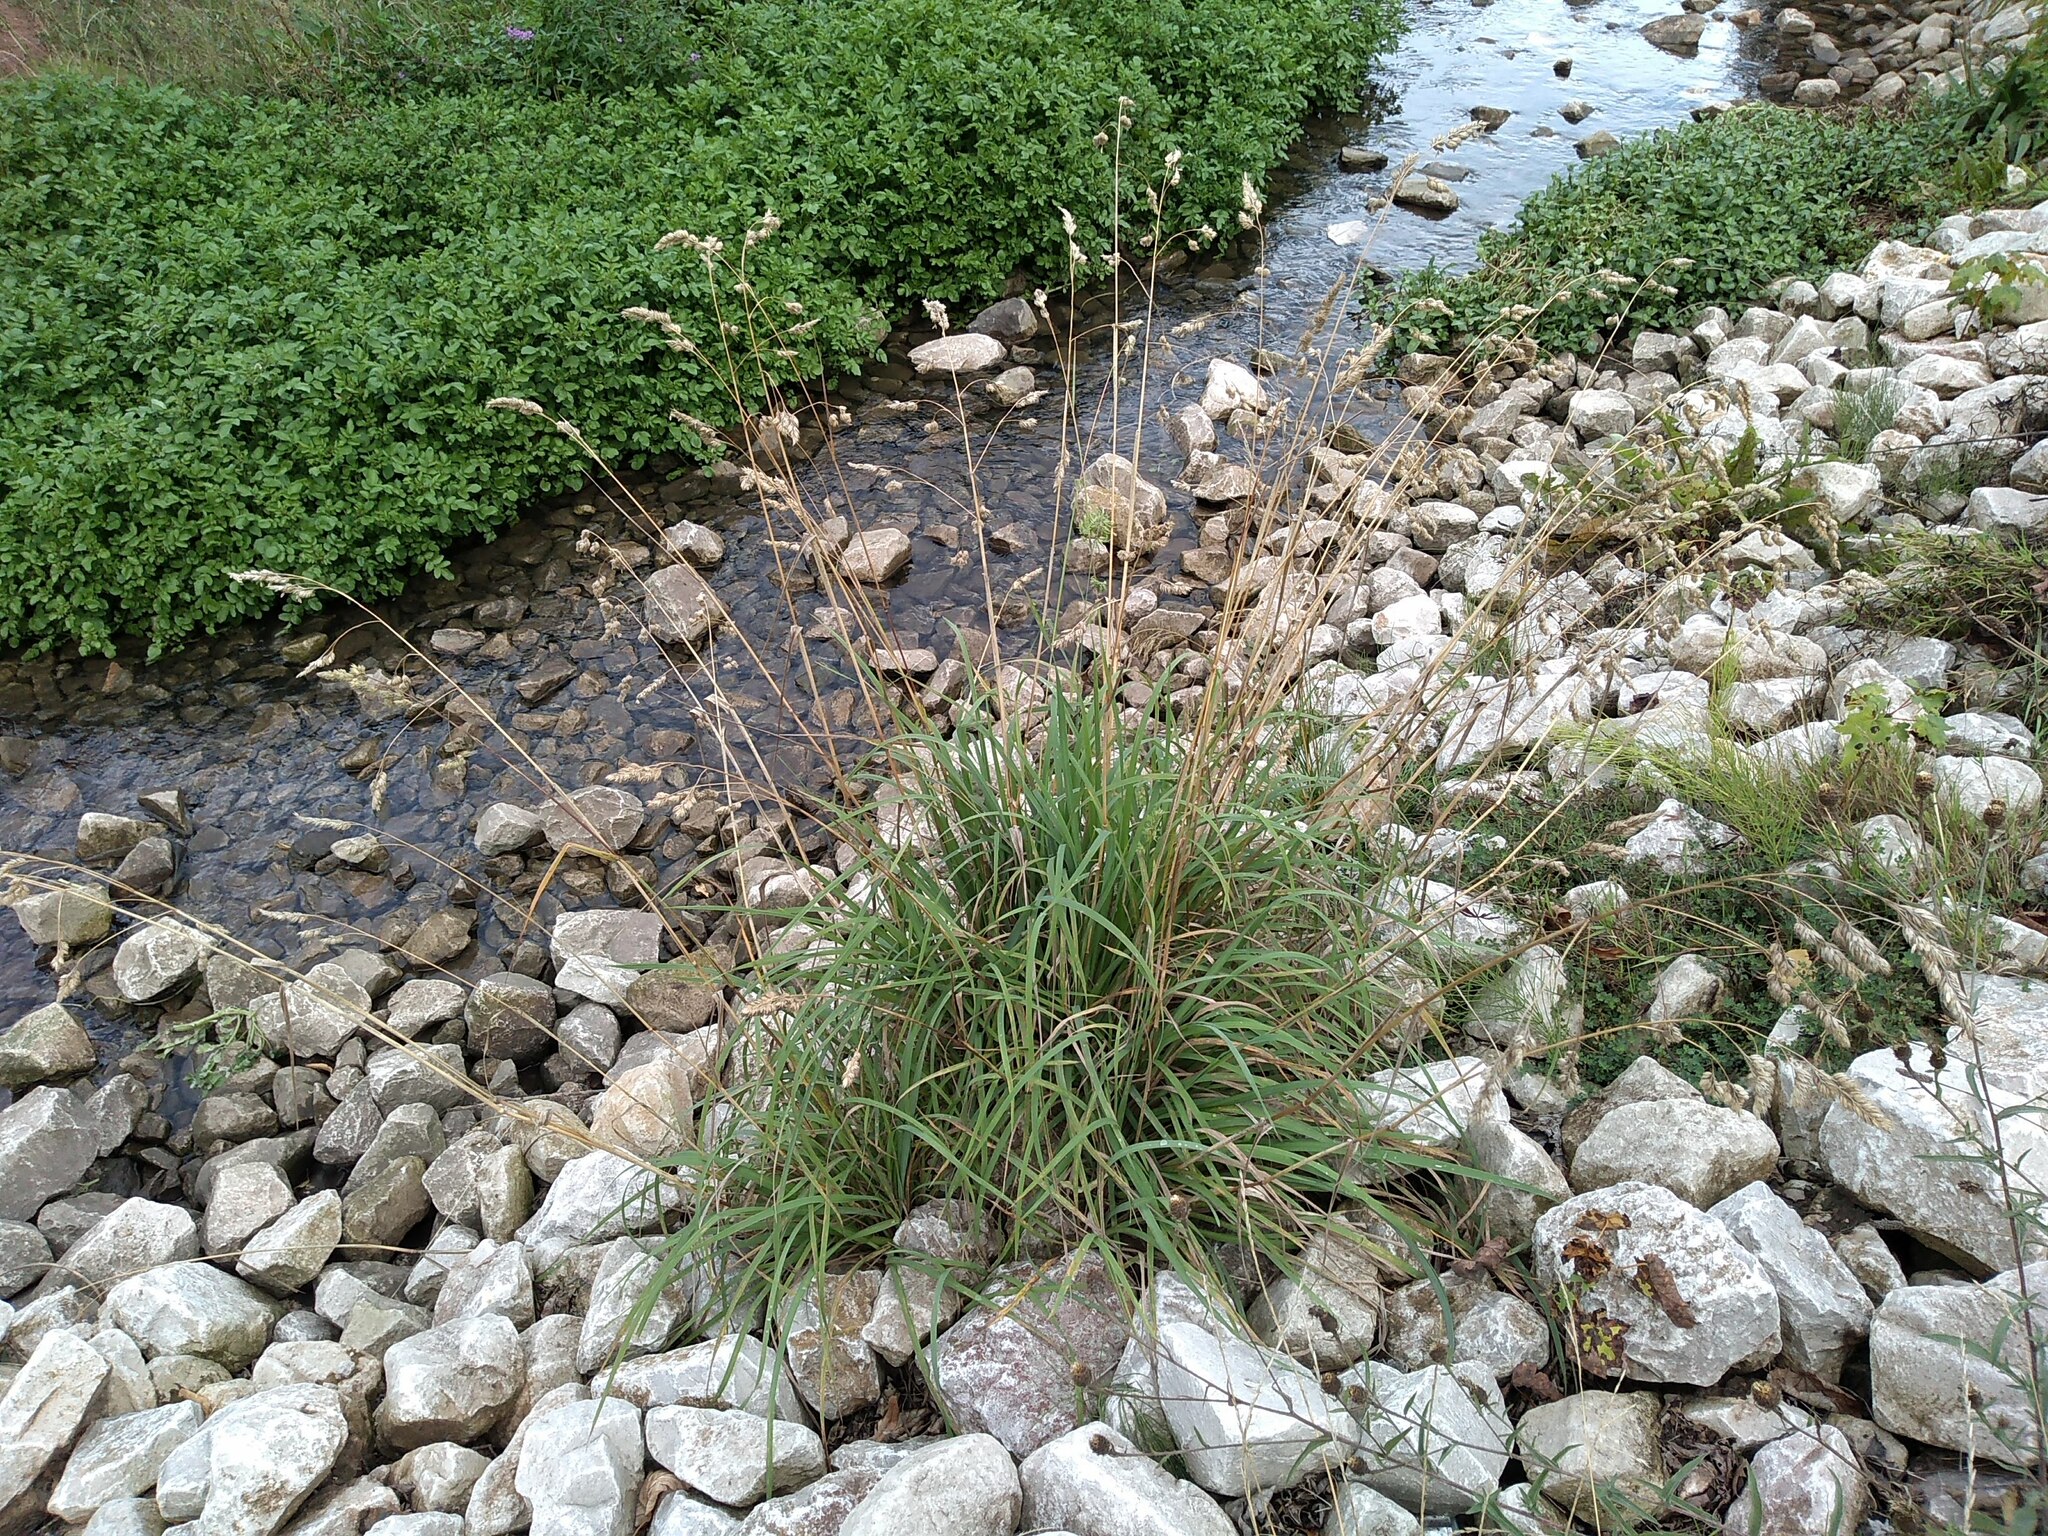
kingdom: Plantae
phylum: Tracheophyta
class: Liliopsida
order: Poales
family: Poaceae
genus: Dactylis
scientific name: Dactylis glomerata
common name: Orchardgrass
